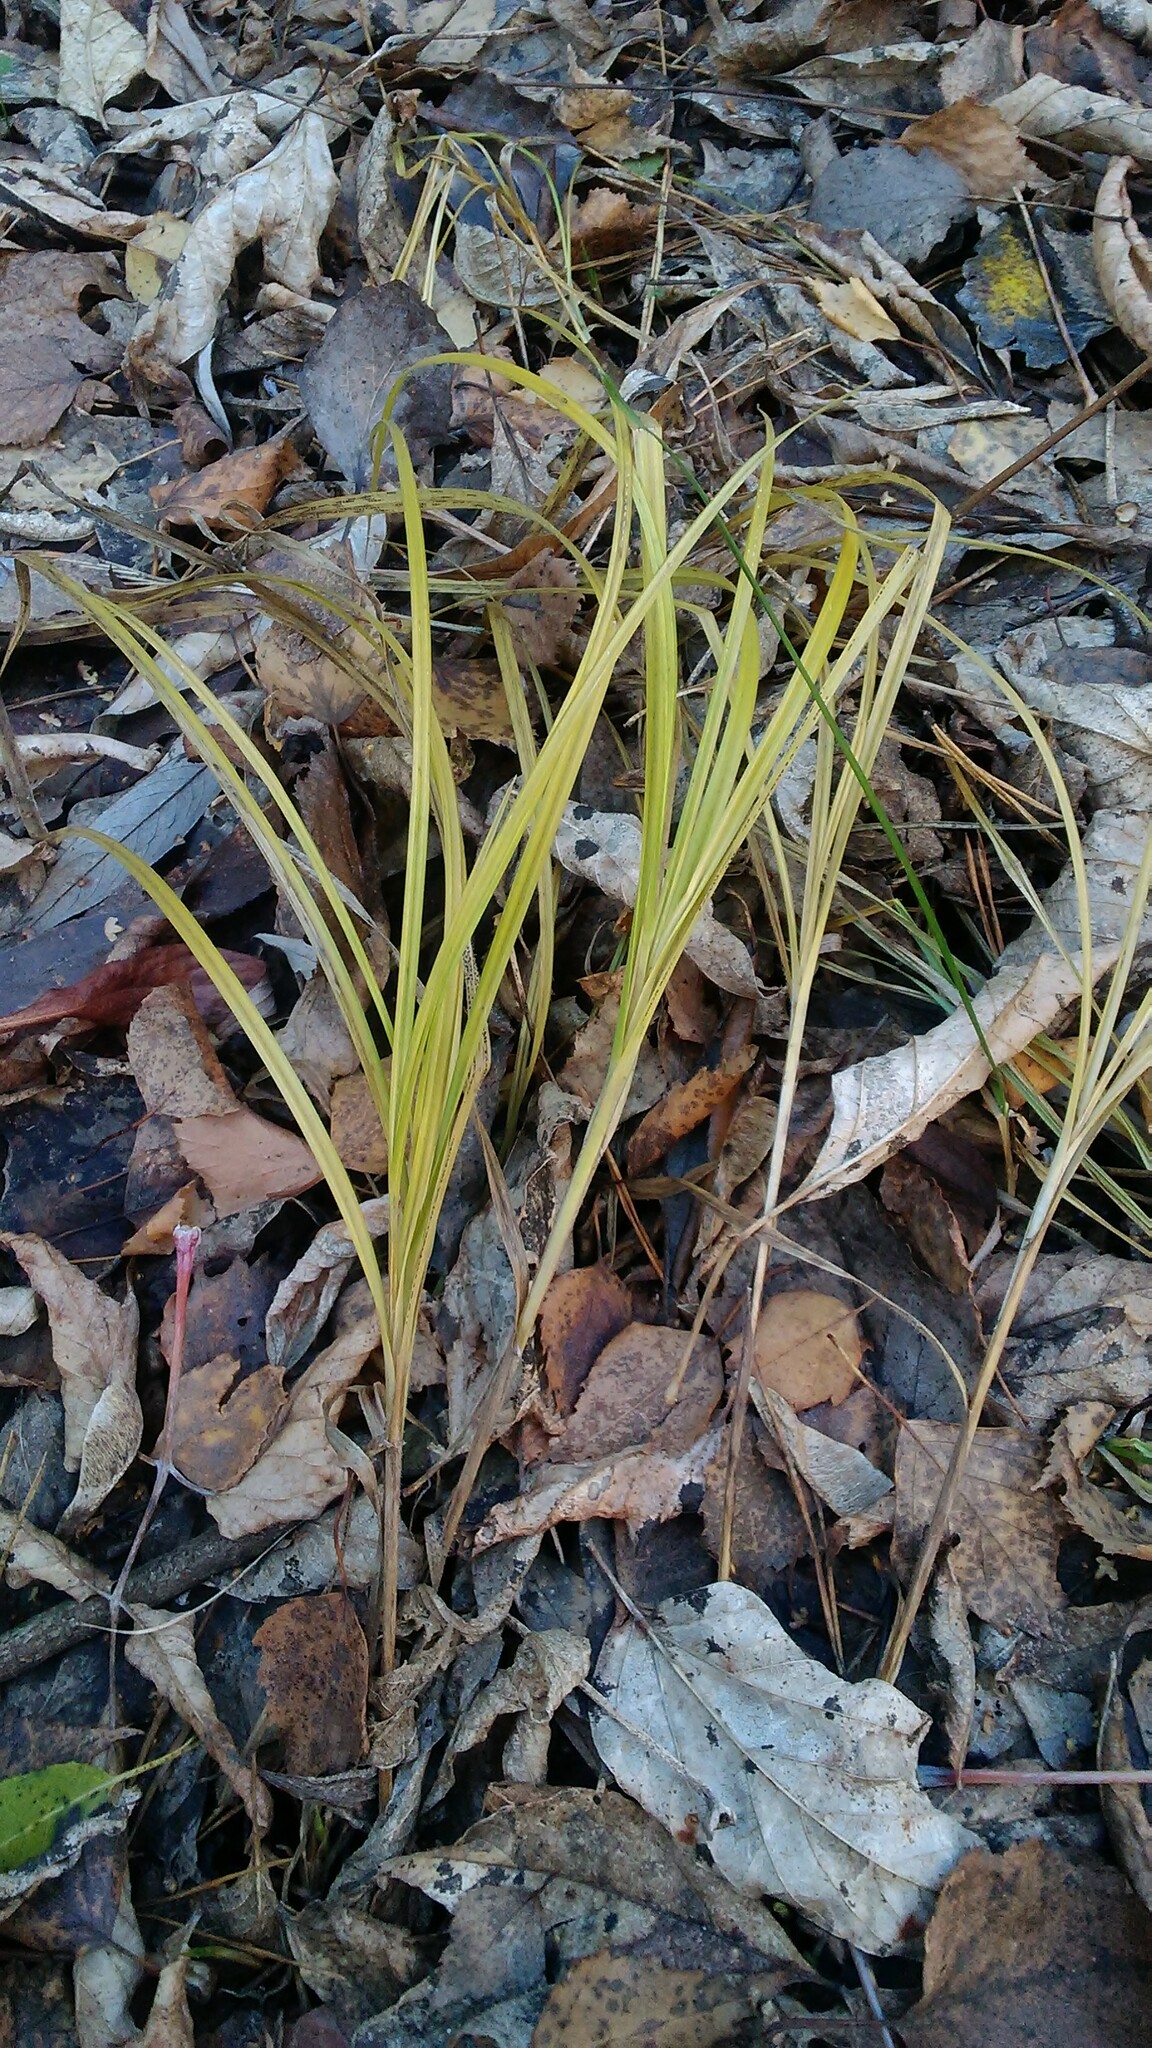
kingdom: Plantae
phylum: Tracheophyta
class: Liliopsida
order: Poales
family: Cyperaceae
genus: Carex
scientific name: Carex hirta
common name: Hairy sedge
